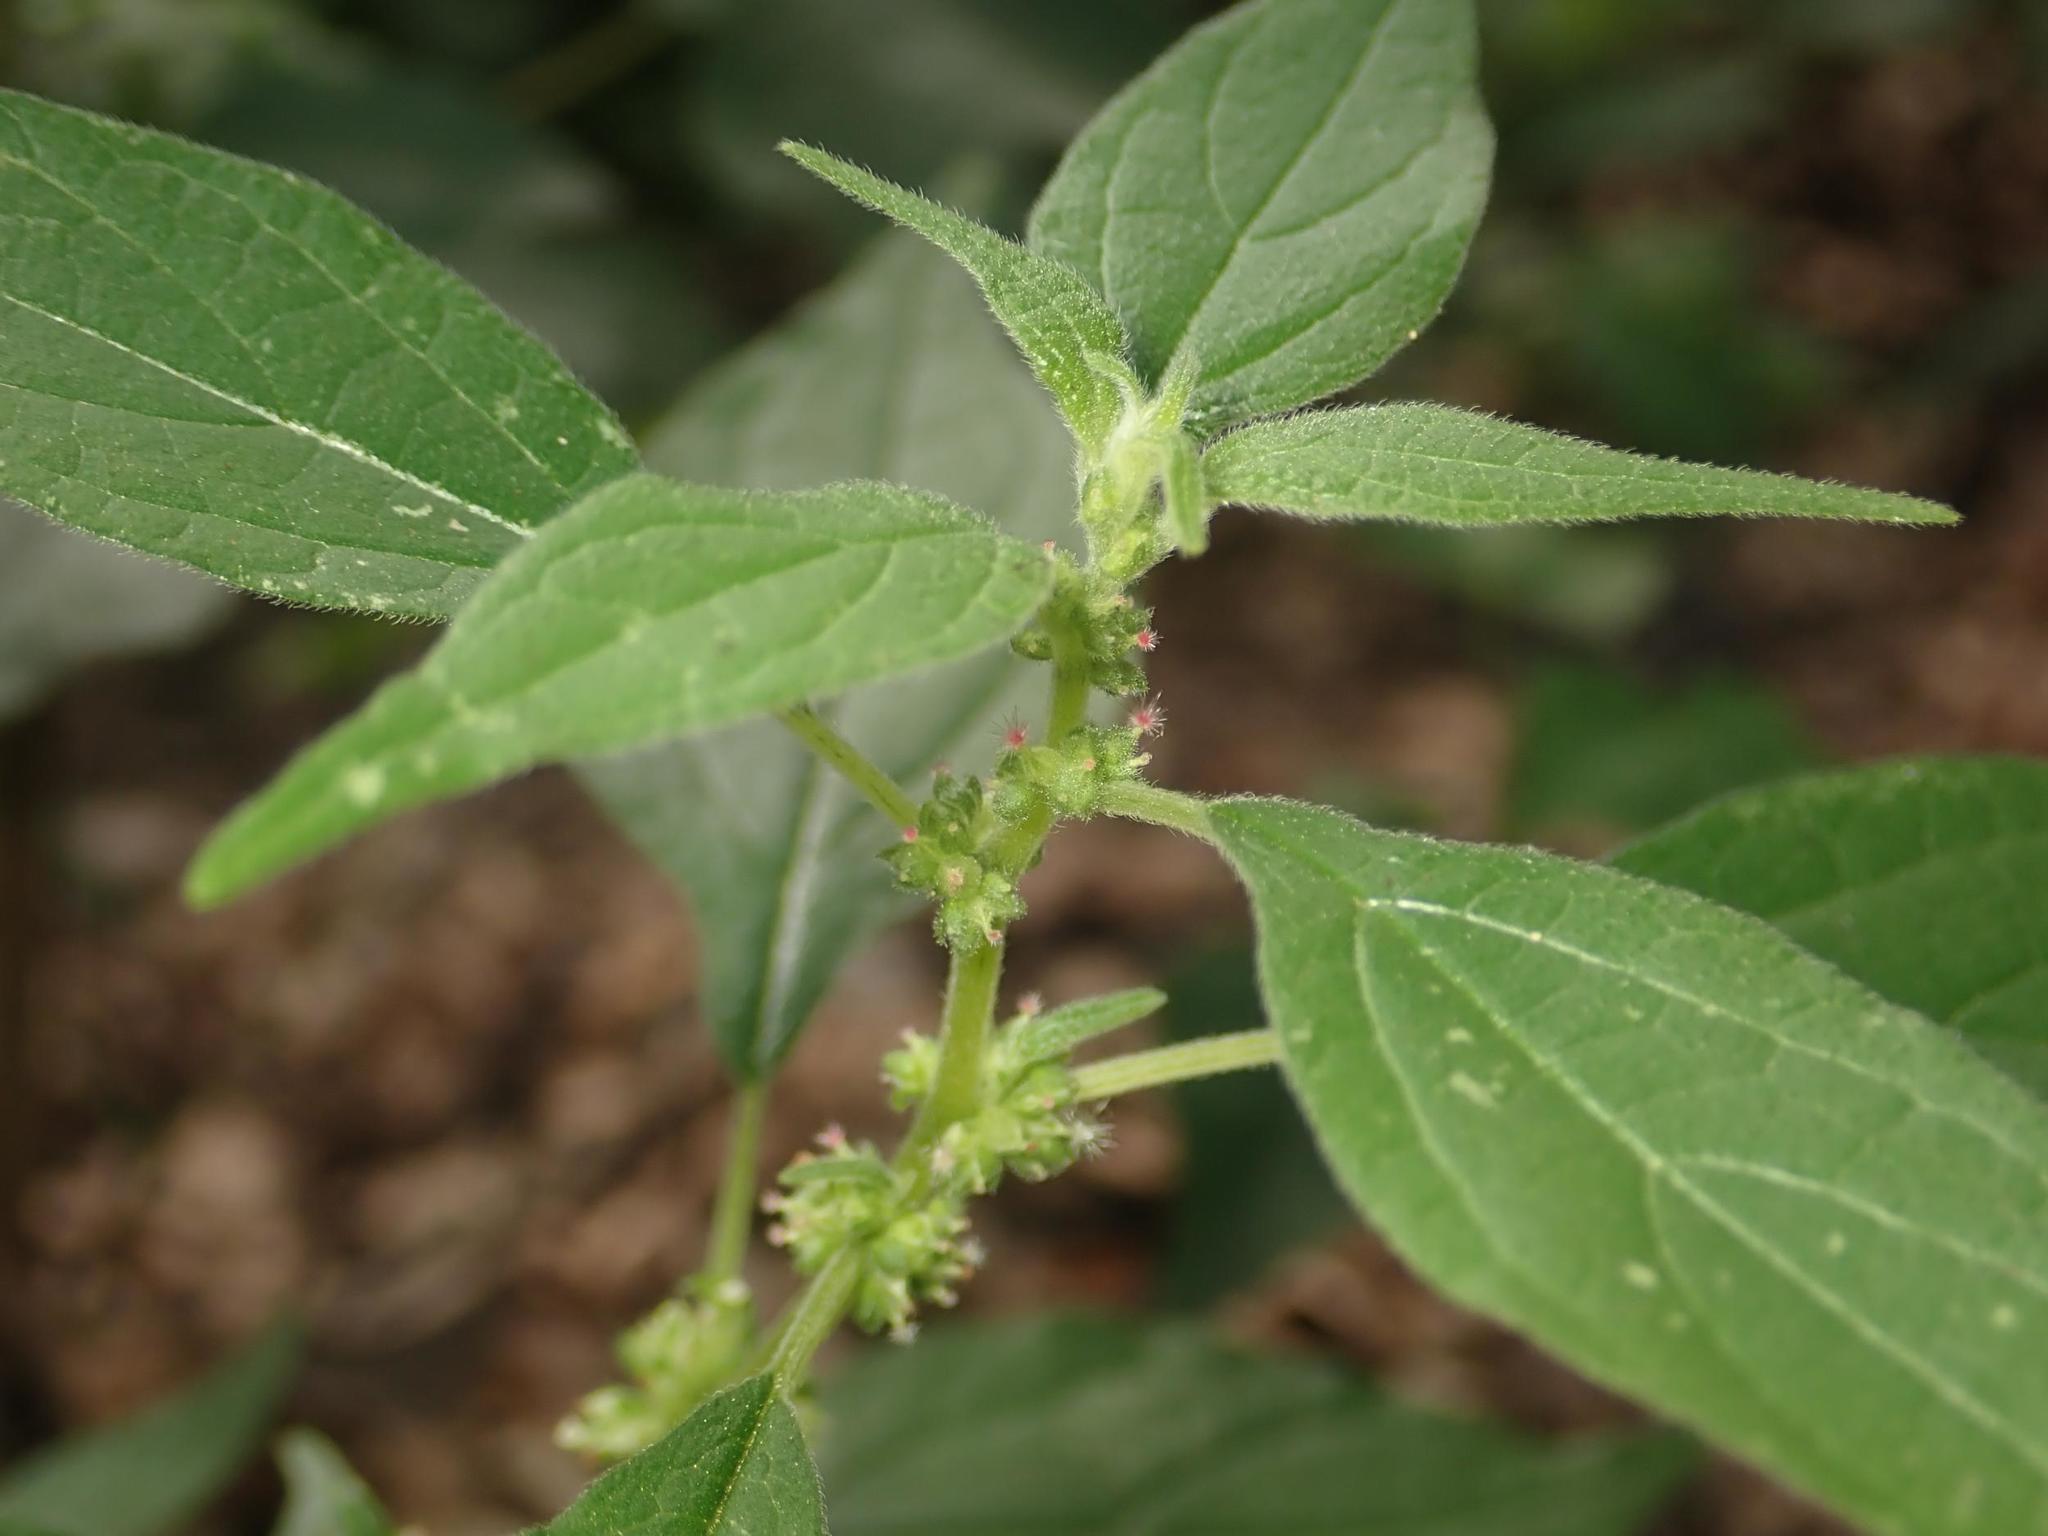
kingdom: Plantae
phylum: Tracheophyta
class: Magnoliopsida
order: Rosales
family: Urticaceae
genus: Parietaria
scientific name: Parietaria officinalis
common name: Eastern pellitory-of-the-wall
